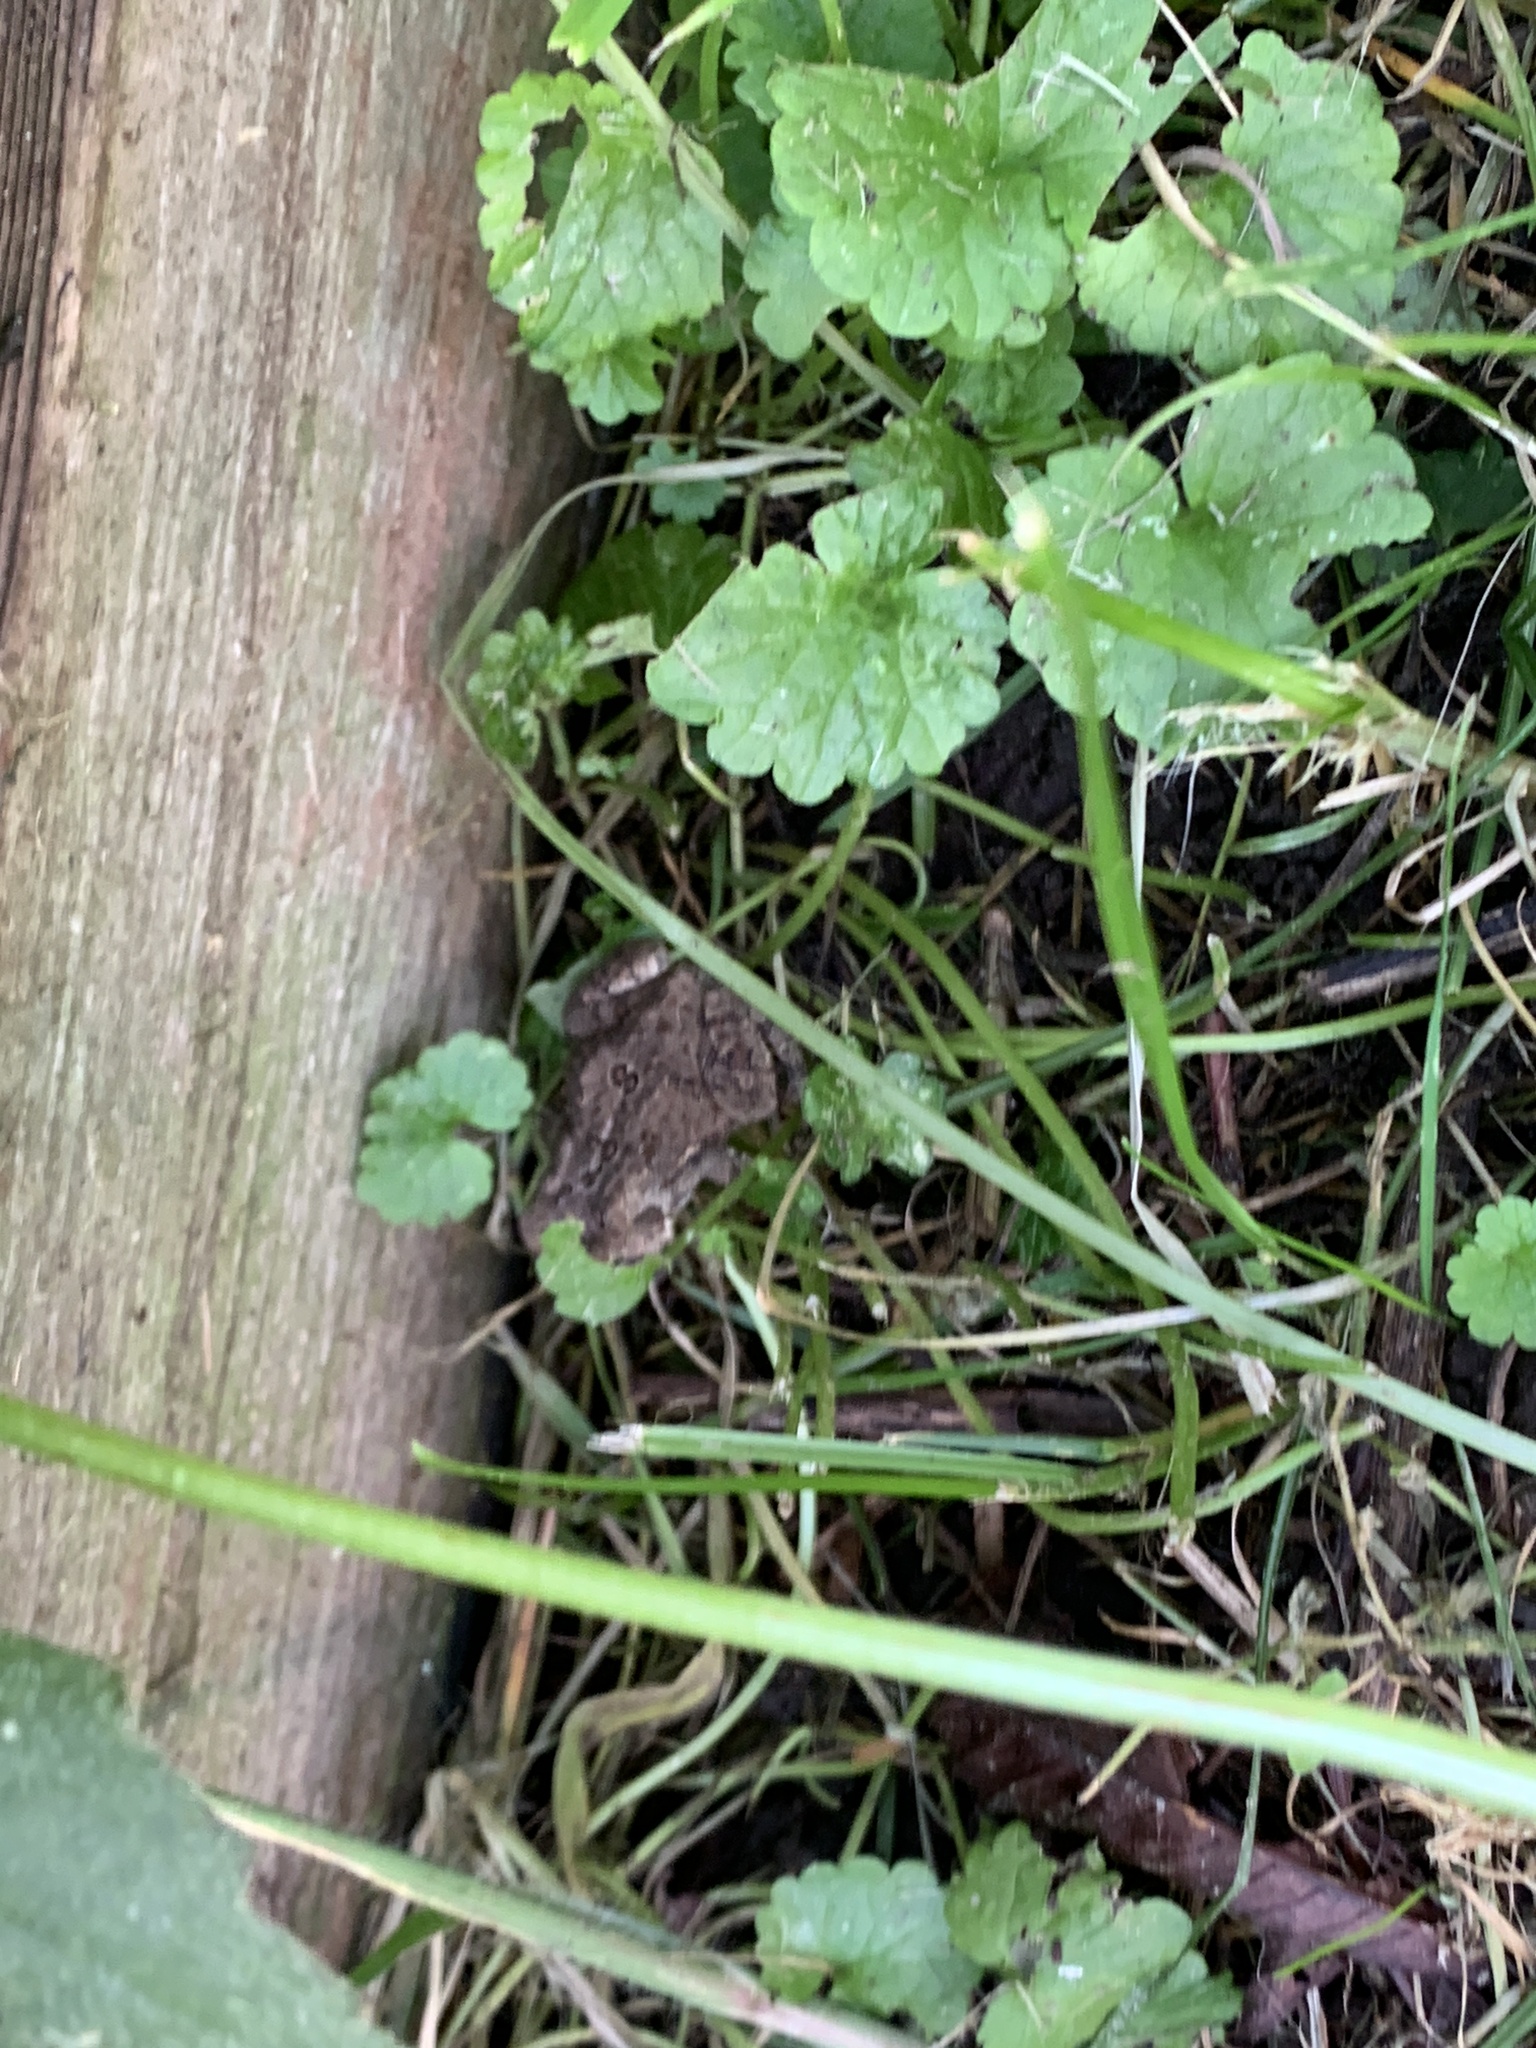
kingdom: Animalia
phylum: Chordata
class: Amphibia
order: Anura
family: Bufonidae
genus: Anaxyrus
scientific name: Anaxyrus americanus
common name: American toad
